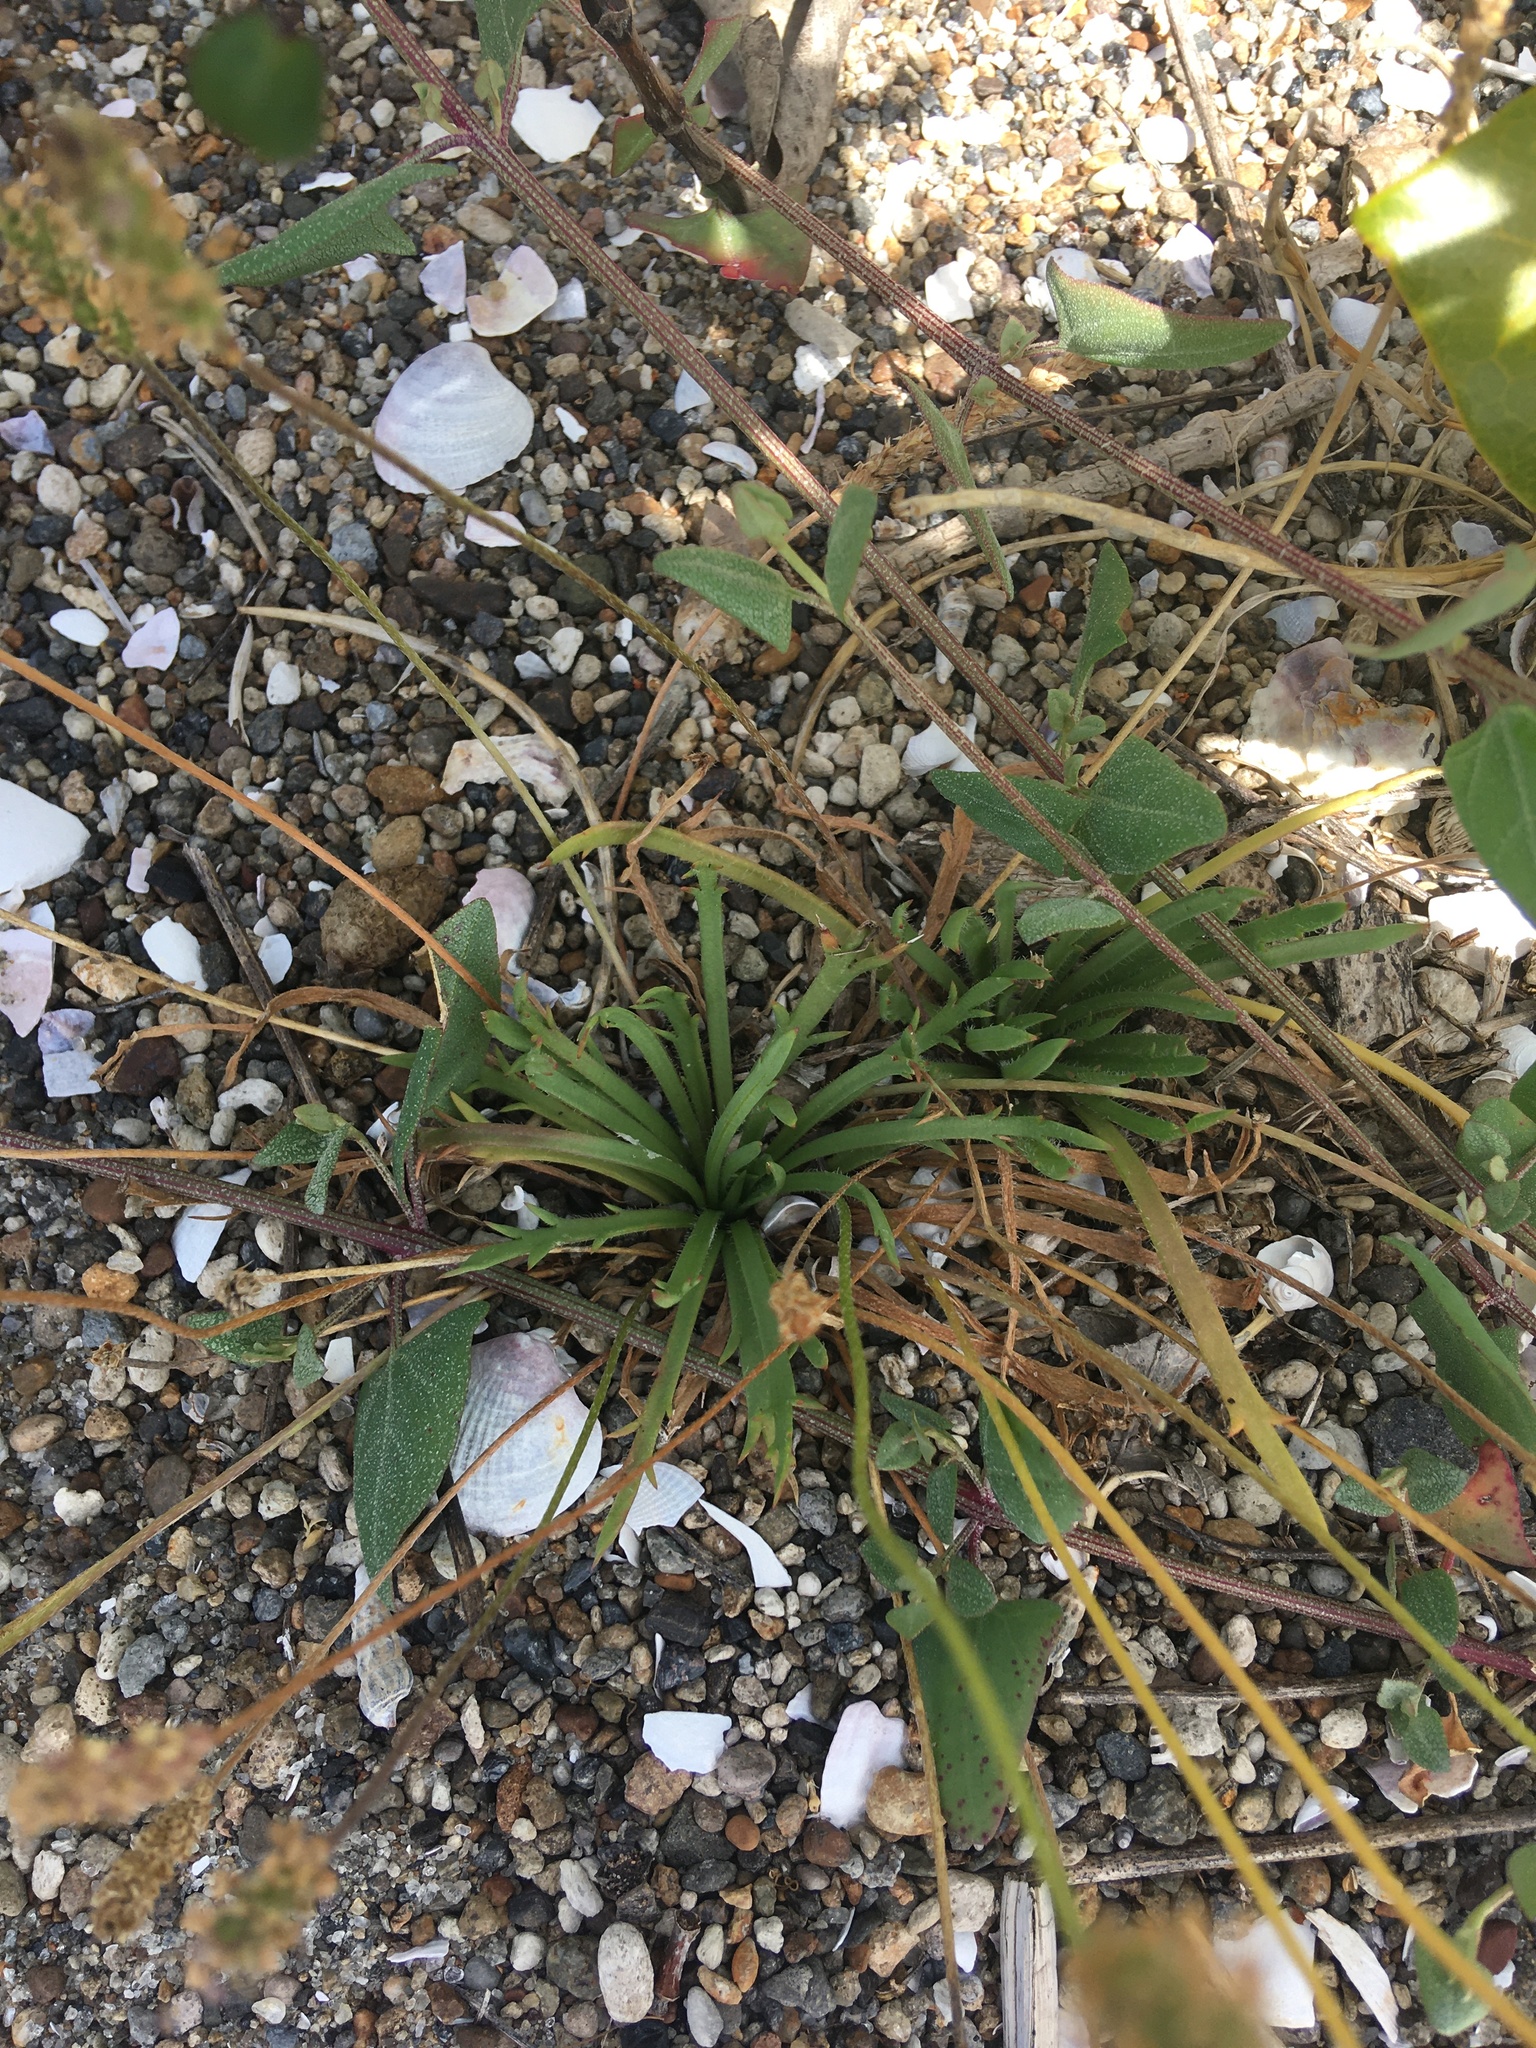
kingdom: Plantae
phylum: Tracheophyta
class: Magnoliopsida
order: Lamiales
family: Plantaginaceae
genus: Plantago
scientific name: Plantago coronopus
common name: Buck's-horn plantain
